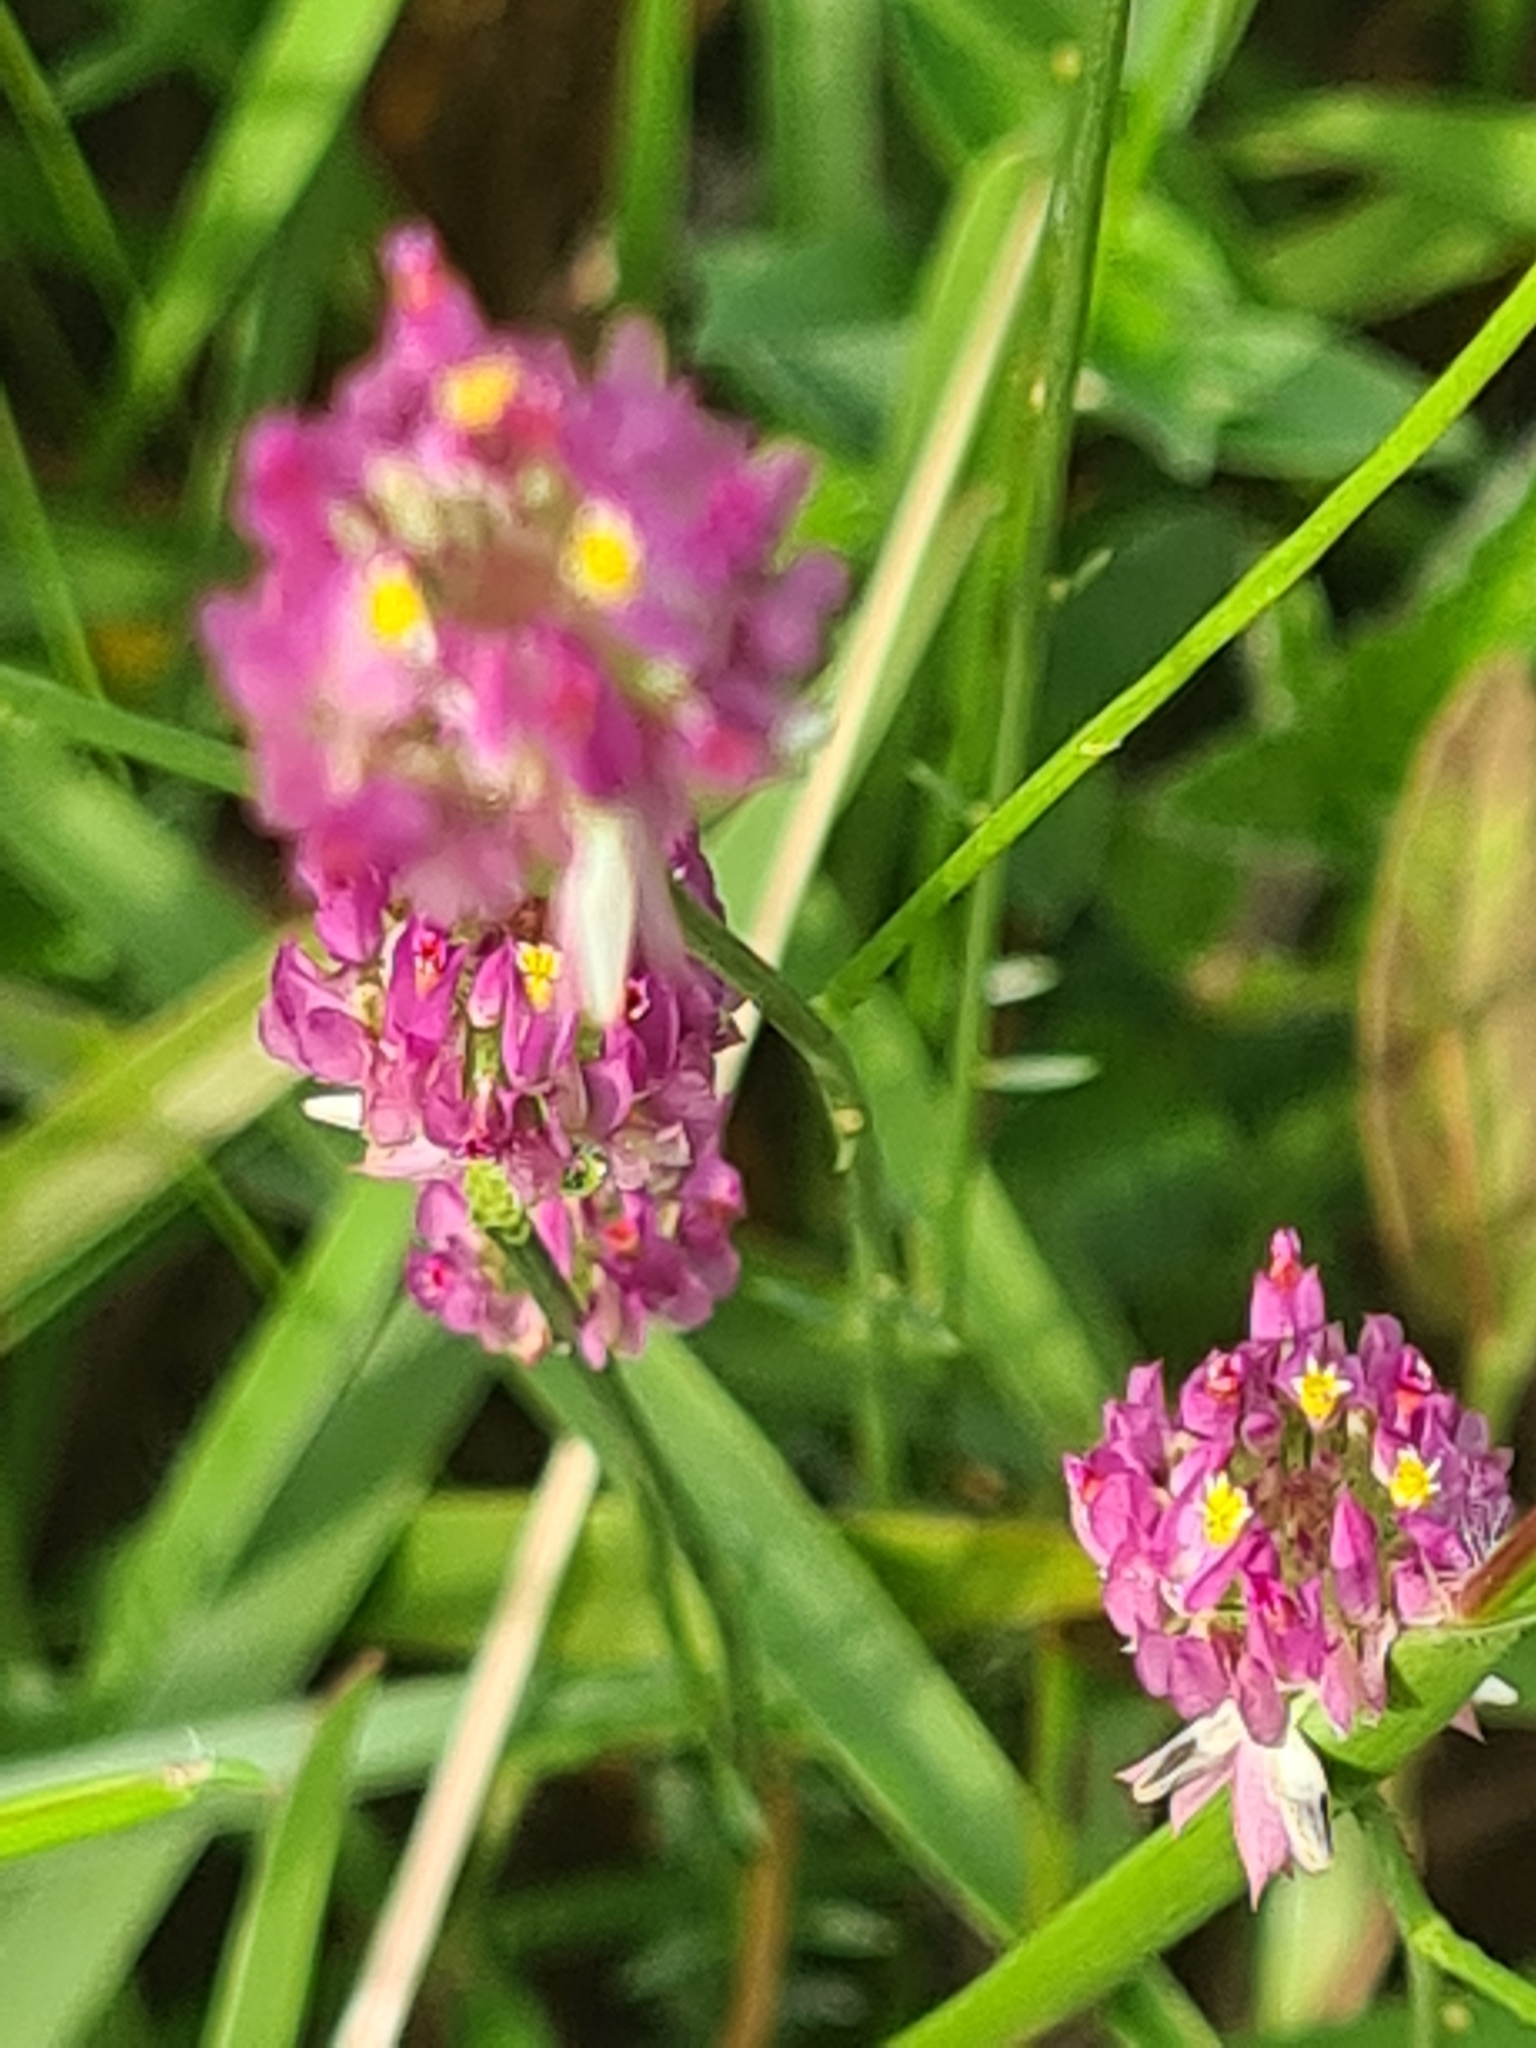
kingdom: Plantae
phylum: Tracheophyta
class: Magnoliopsida
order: Fabales
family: Polygalaceae
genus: Polygala
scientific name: Polygala longicaulis
